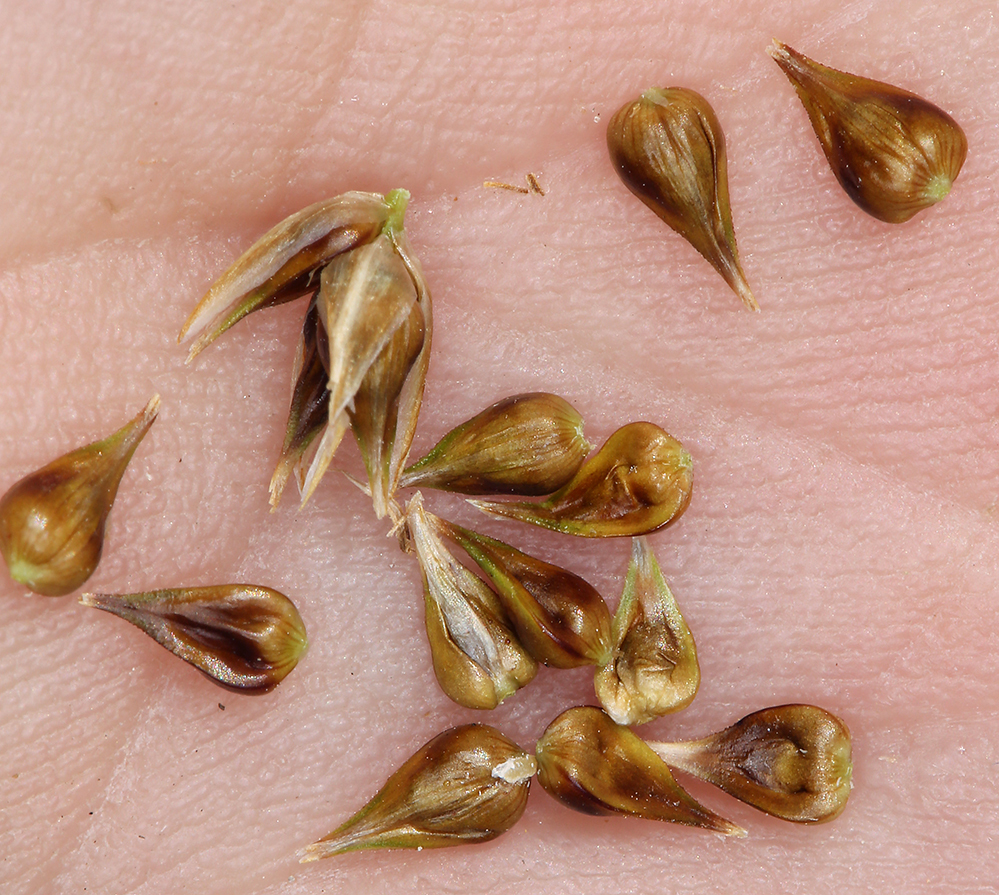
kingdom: Plantae
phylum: Tracheophyta
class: Liliopsida
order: Poales
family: Cyperaceae
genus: Carex
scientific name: Carex praegracilis
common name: Black creeper sedge
